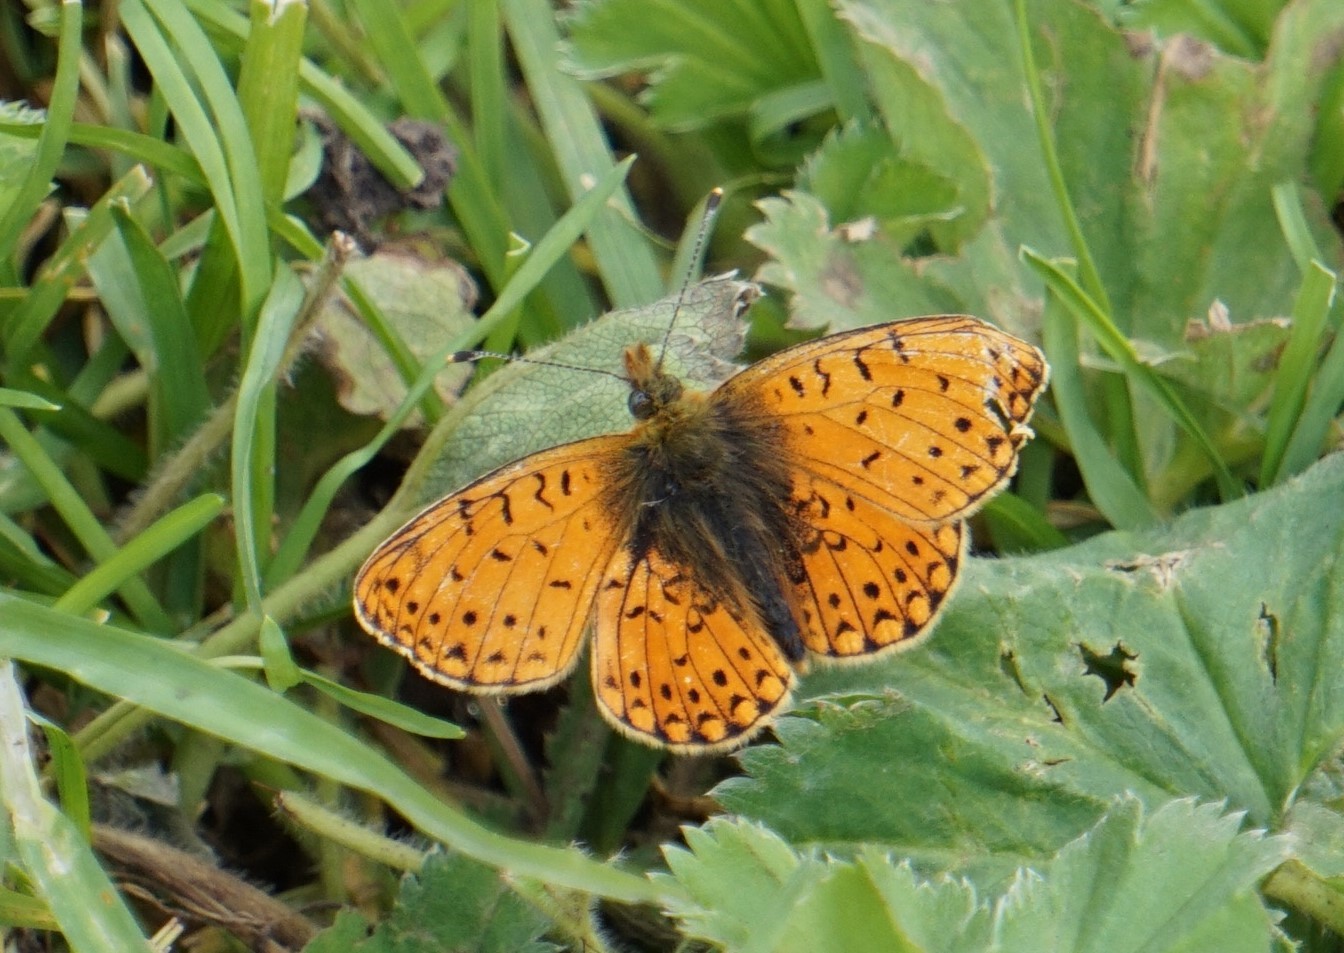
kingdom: Animalia
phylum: Arthropoda
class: Insecta
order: Lepidoptera
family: Nymphalidae
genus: Boloria
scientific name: Boloria erubescens
